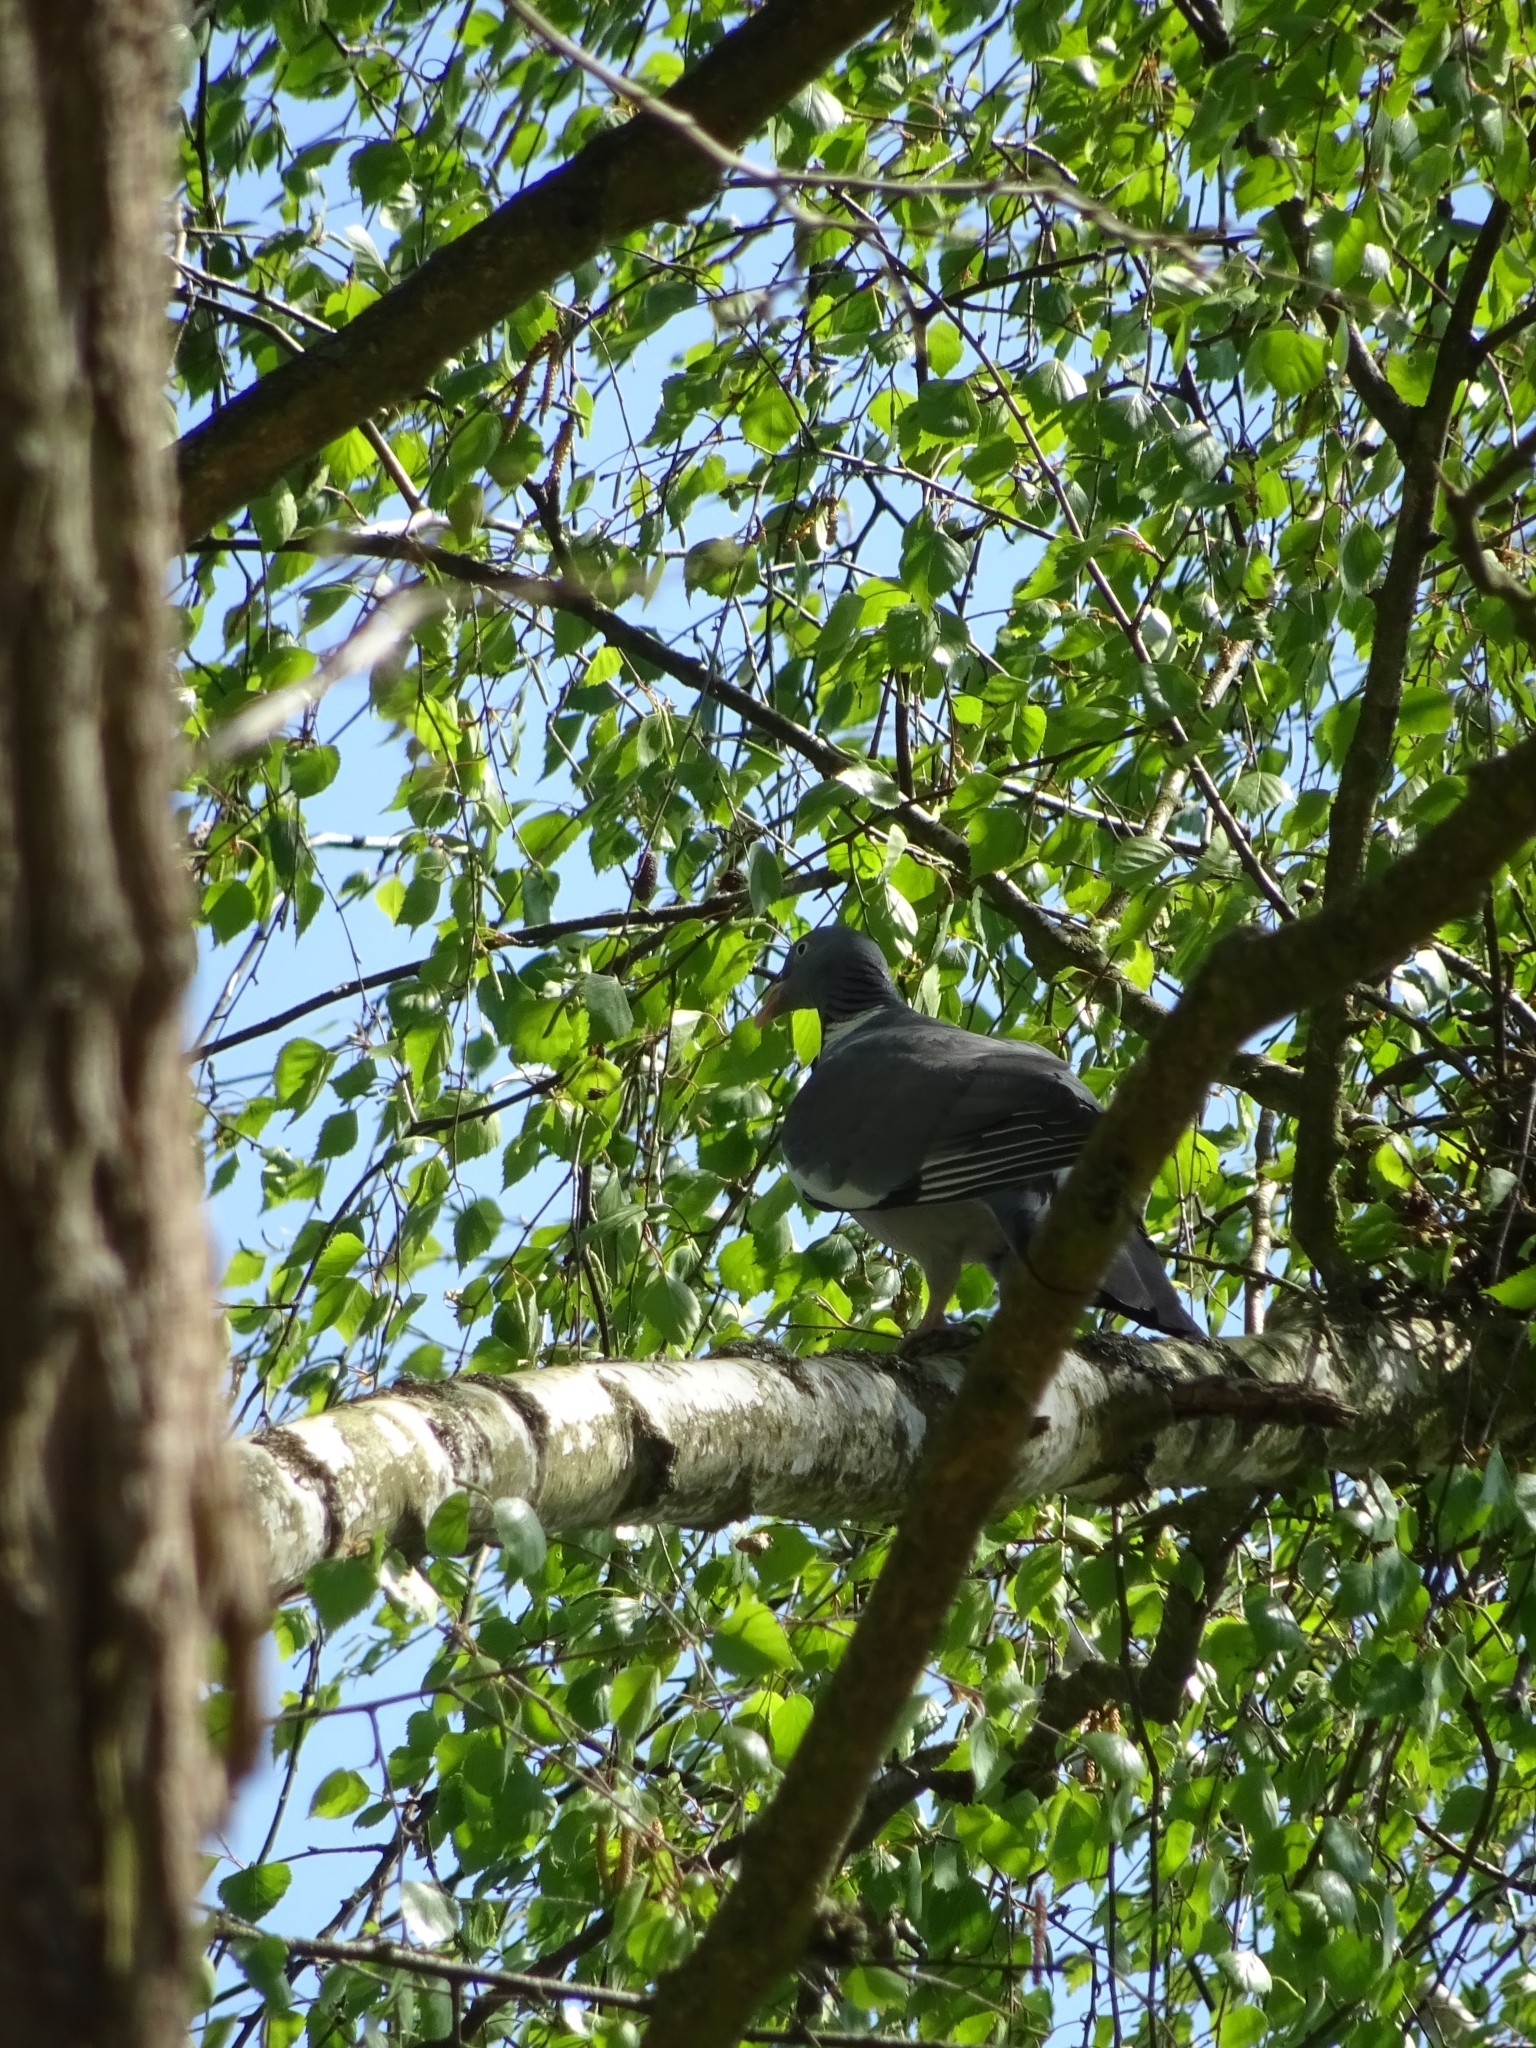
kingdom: Animalia
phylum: Chordata
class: Aves
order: Columbiformes
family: Columbidae
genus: Columba
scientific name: Columba palumbus
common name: Common wood pigeon
